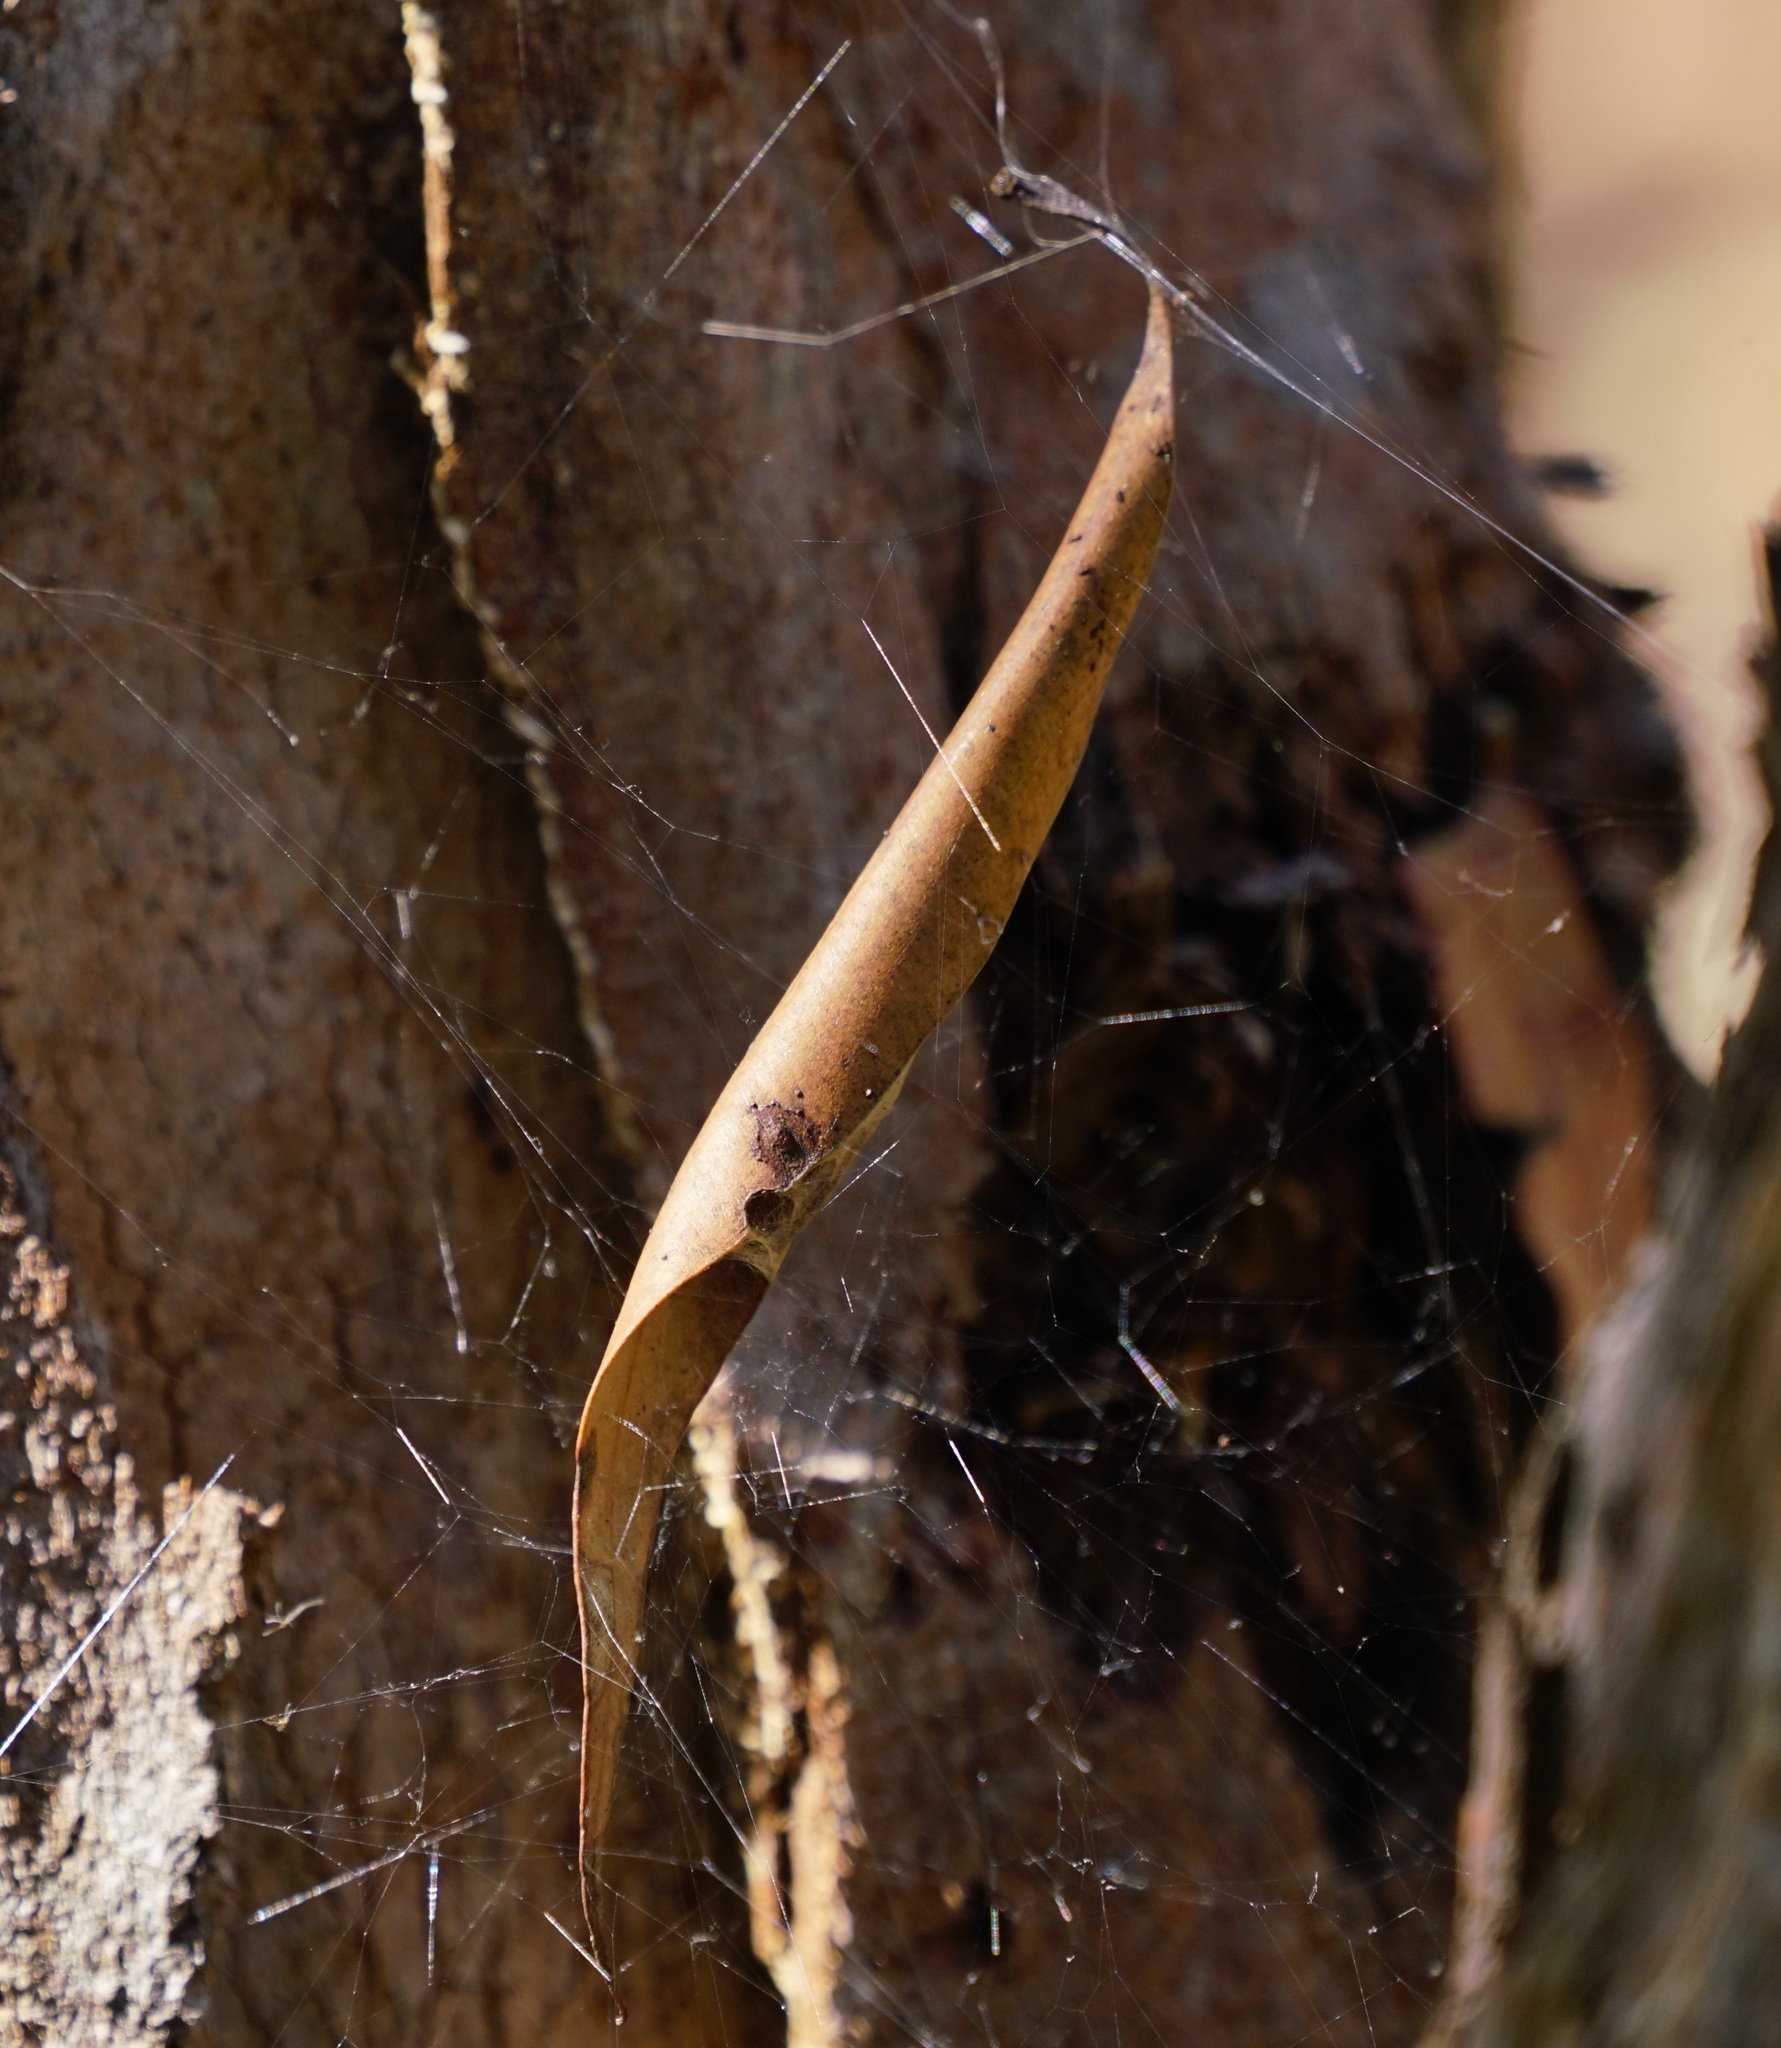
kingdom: Animalia
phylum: Arthropoda
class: Arachnida
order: Araneae
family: Araneidae
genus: Phonognatha
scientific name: Phonognatha graeffei
